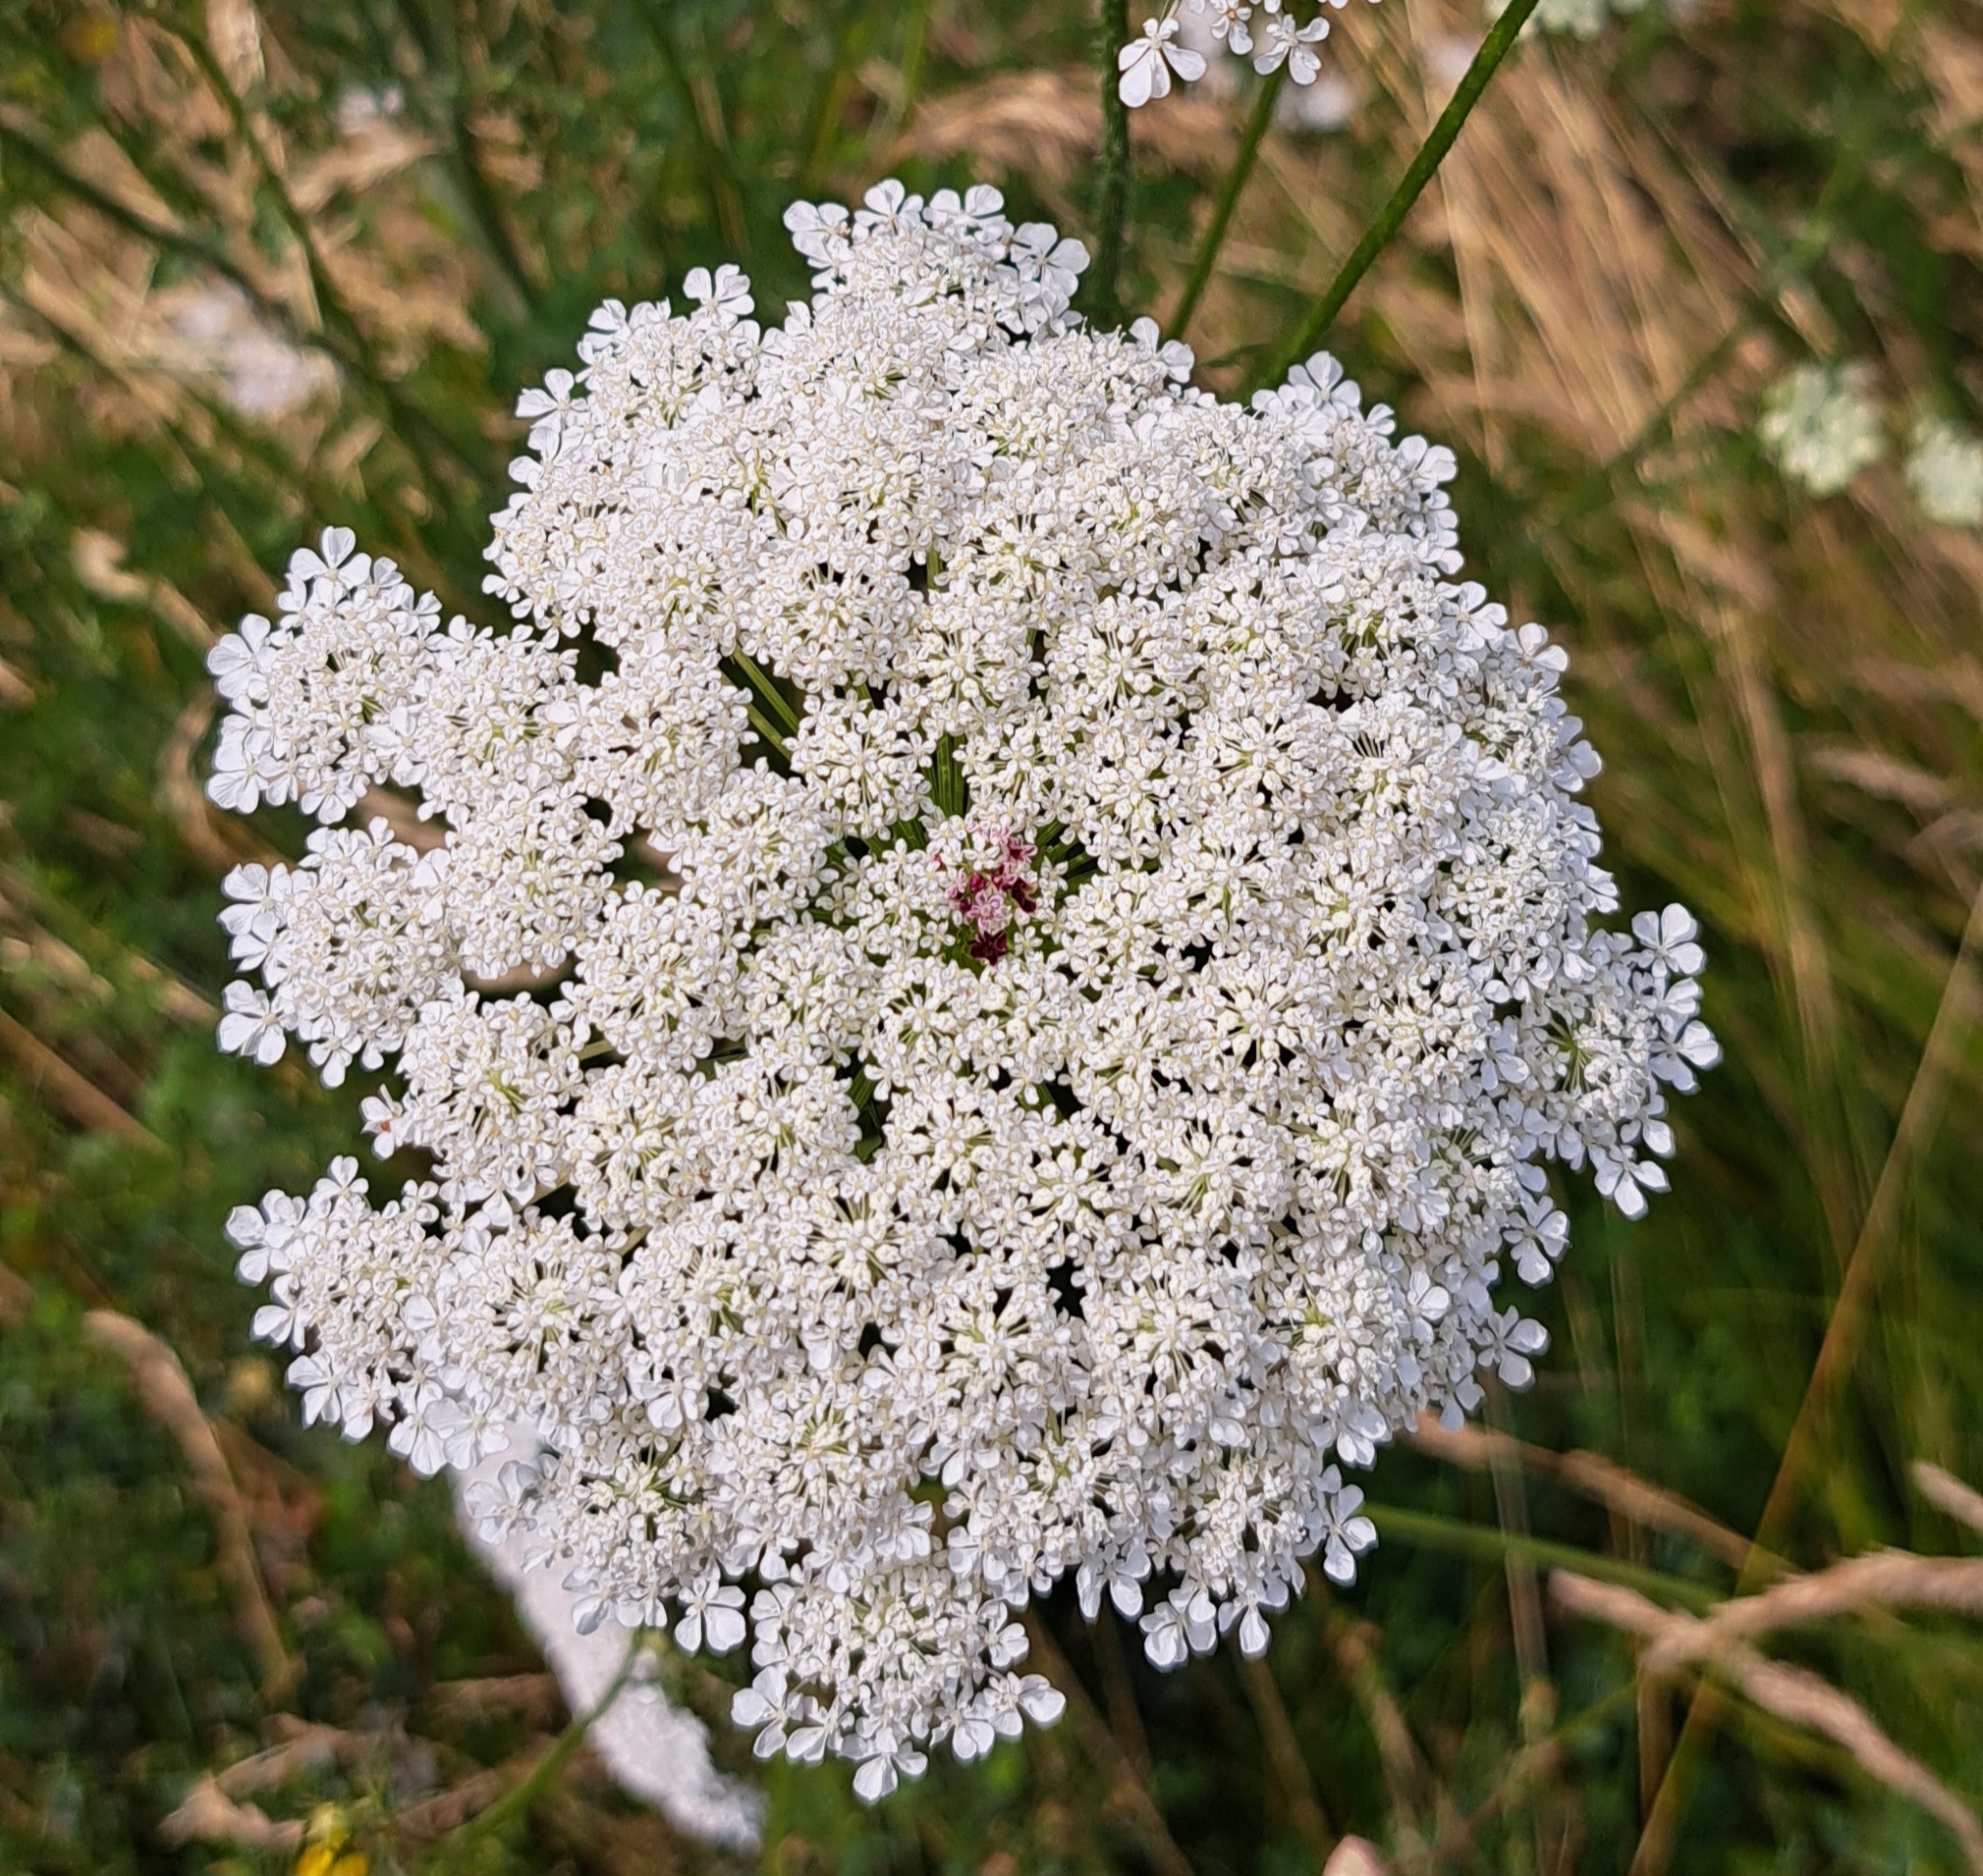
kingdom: Plantae
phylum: Tracheophyta
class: Magnoliopsida
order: Apiales
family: Apiaceae
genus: Daucus
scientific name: Daucus carota
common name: Wild carrot
